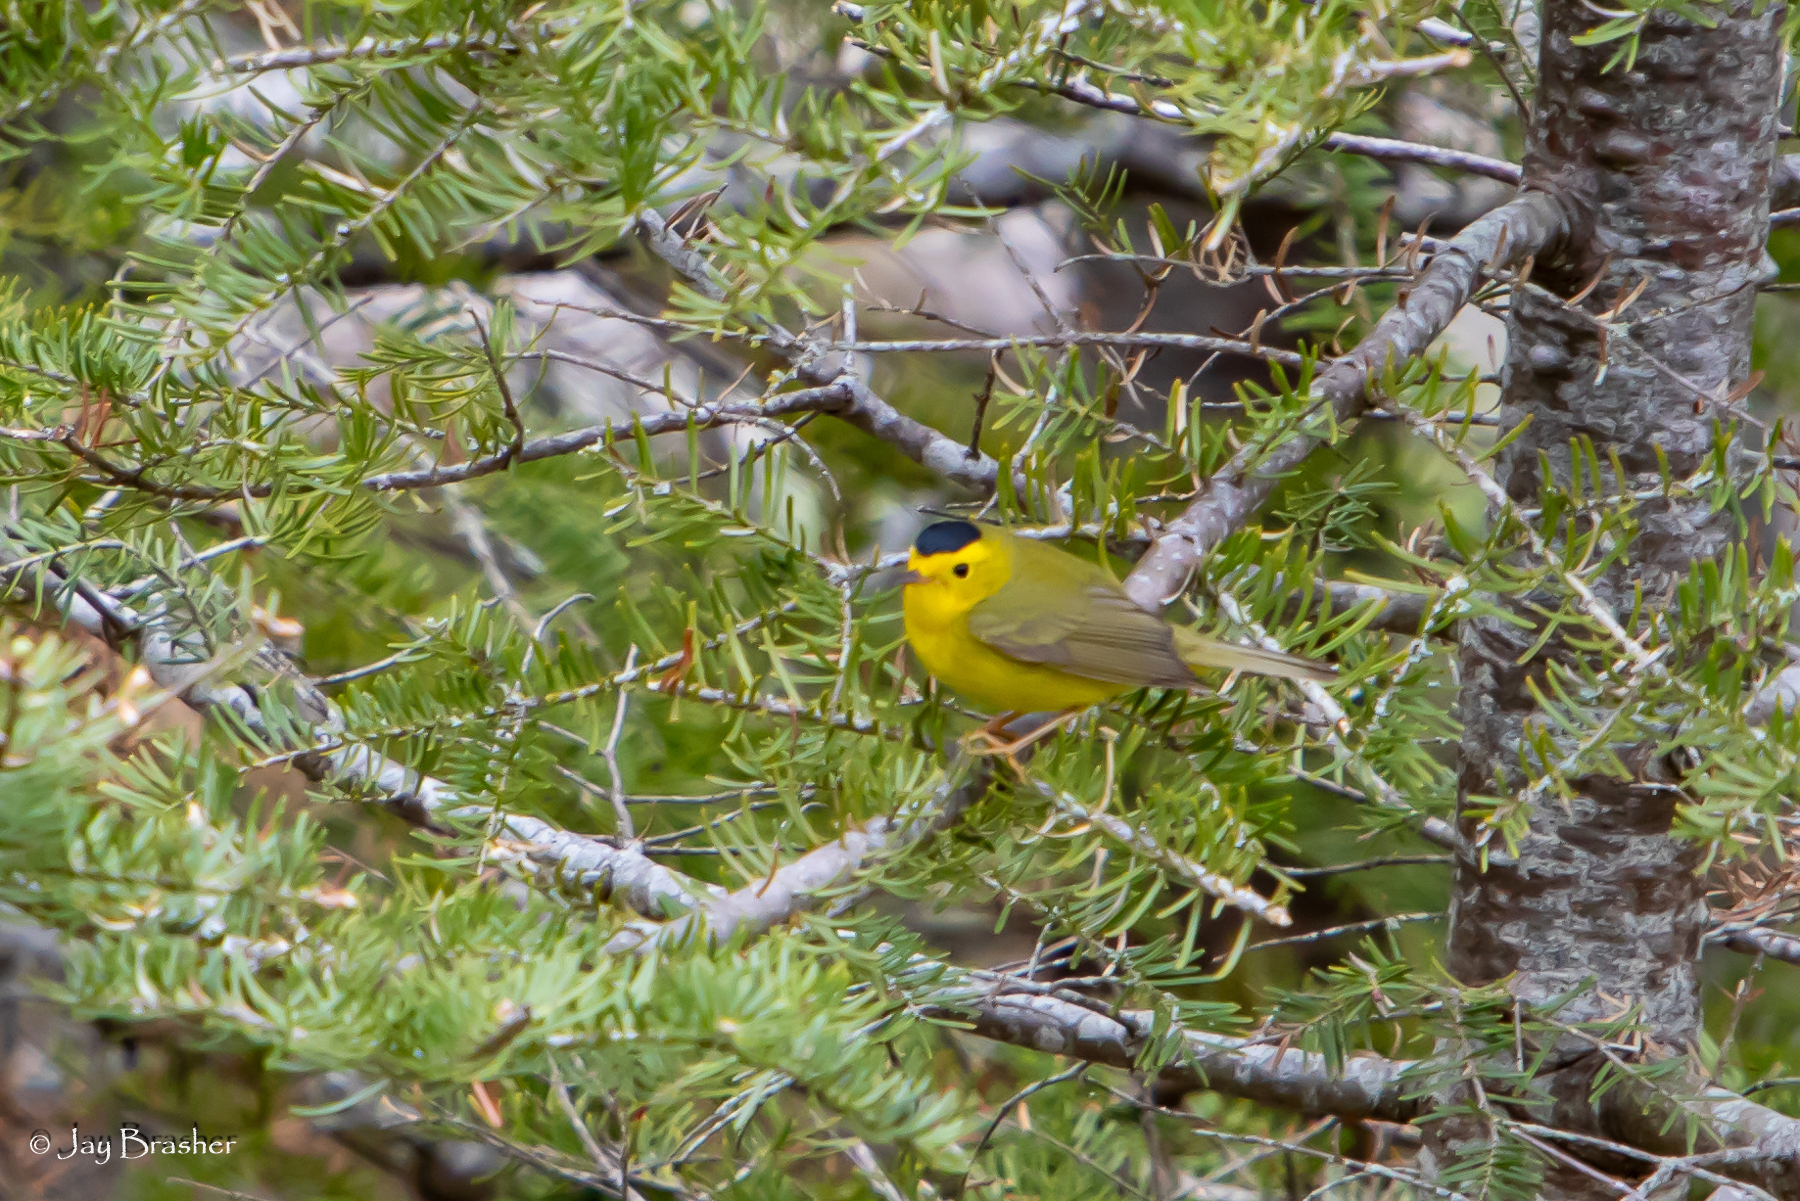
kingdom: Animalia
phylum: Chordata
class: Aves
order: Passeriformes
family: Parulidae
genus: Cardellina
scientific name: Cardellina pusilla
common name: Wilson's warbler
